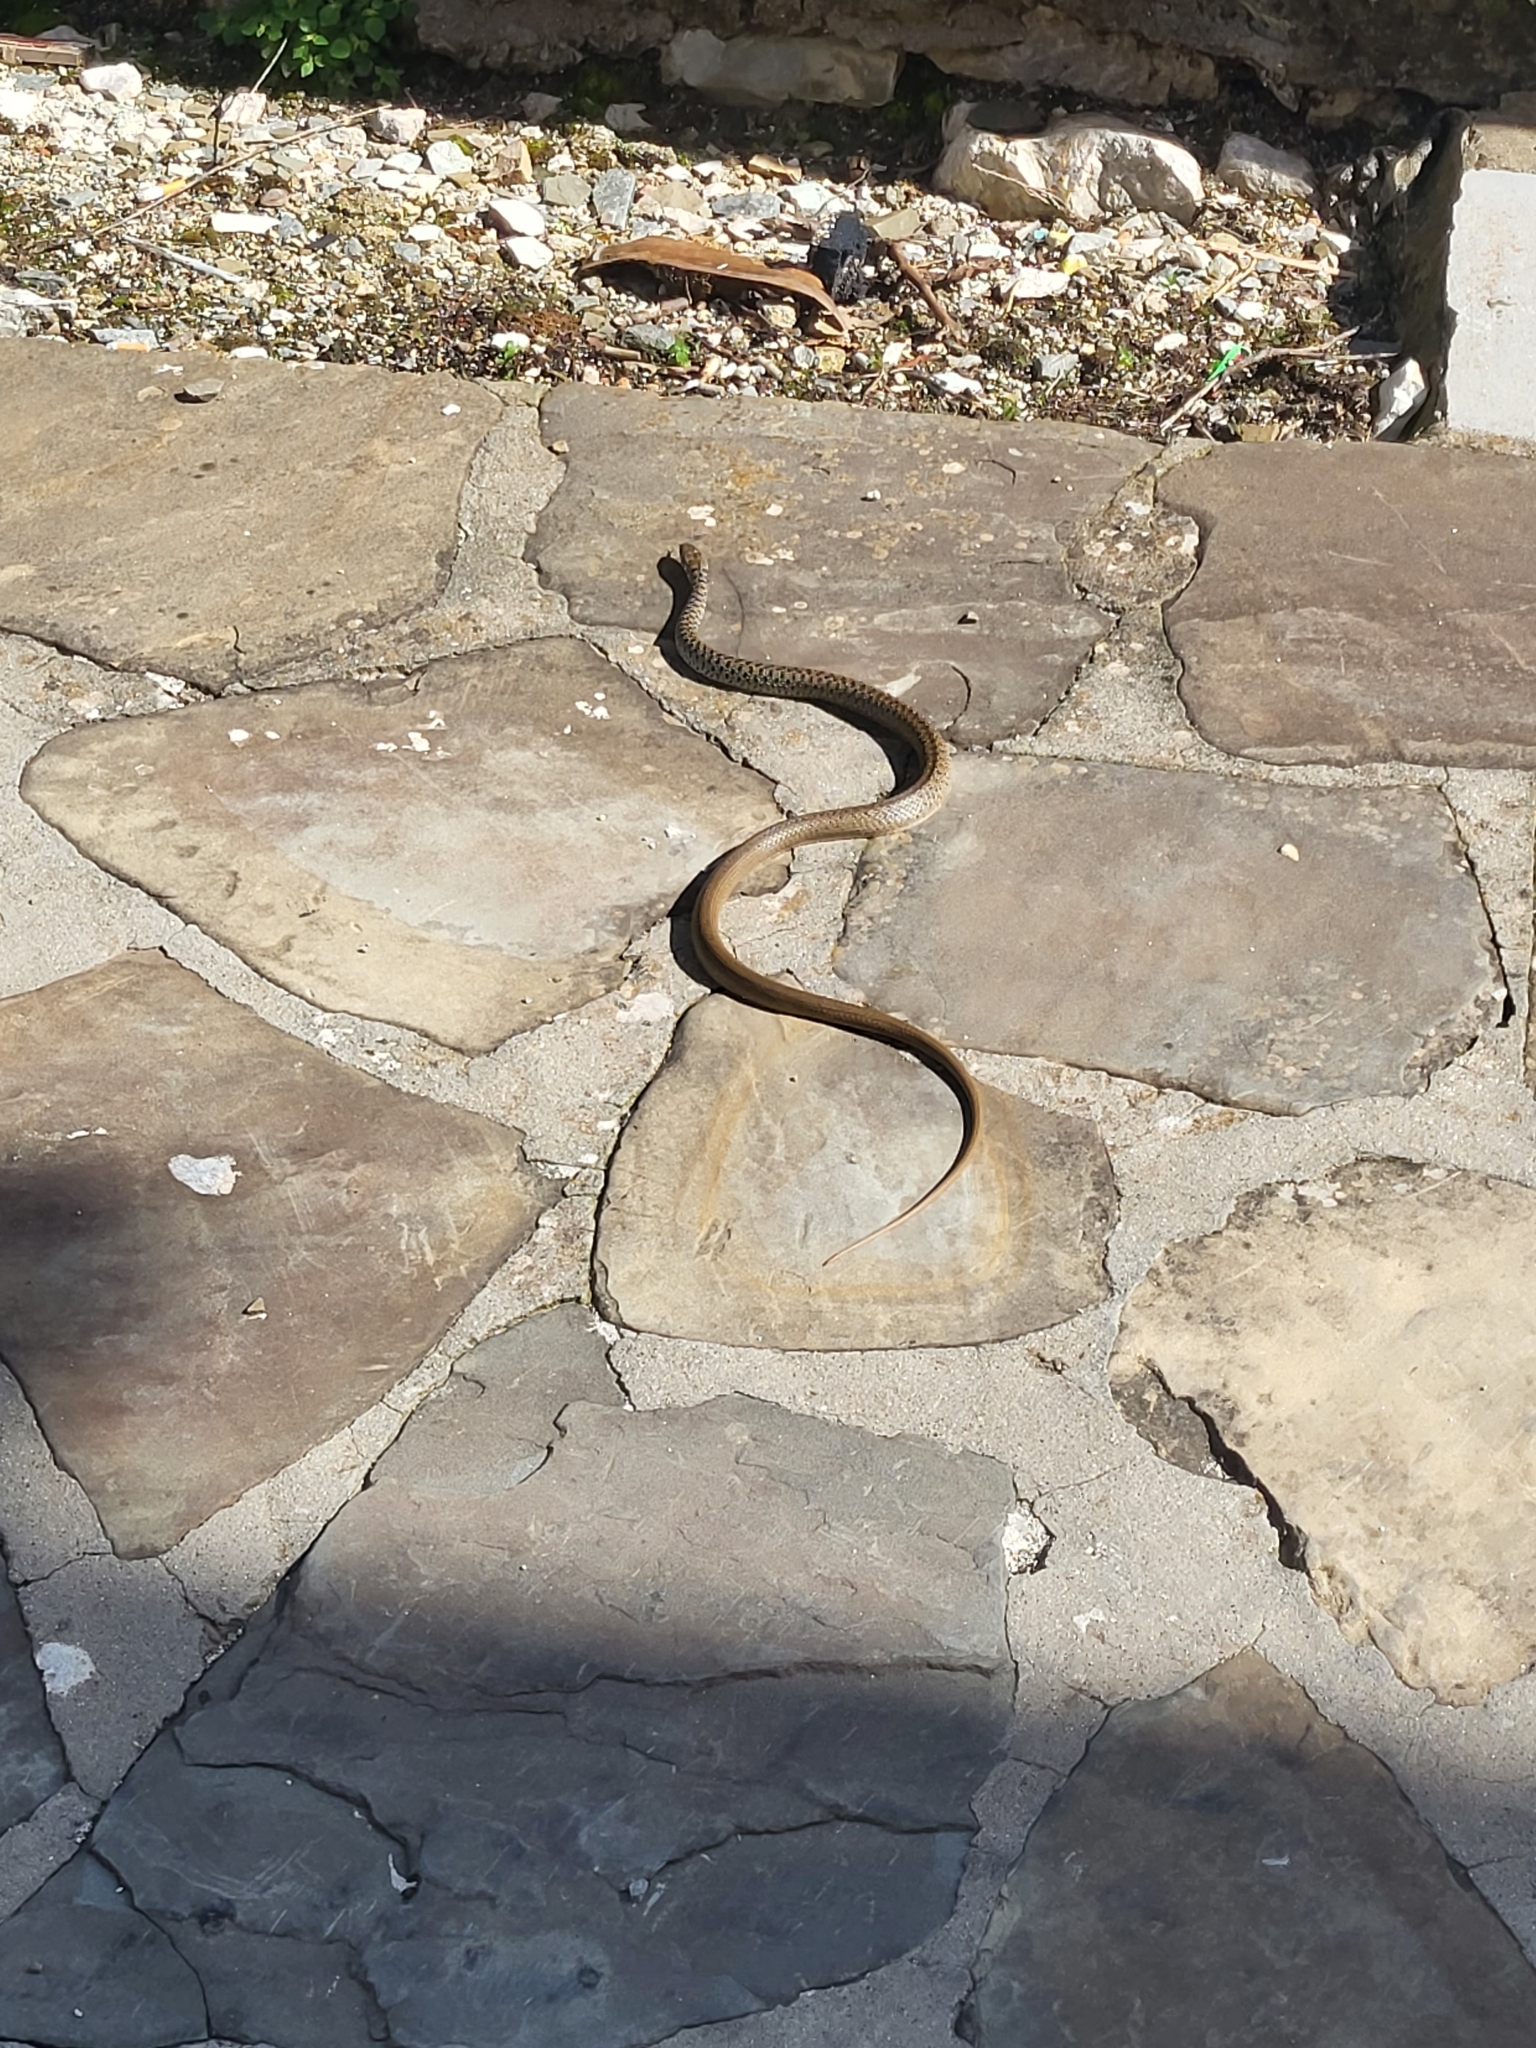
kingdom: Animalia
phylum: Chordata
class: Squamata
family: Colubridae
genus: Hierophis
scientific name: Hierophis gemonensis
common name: Balkan whip snake
